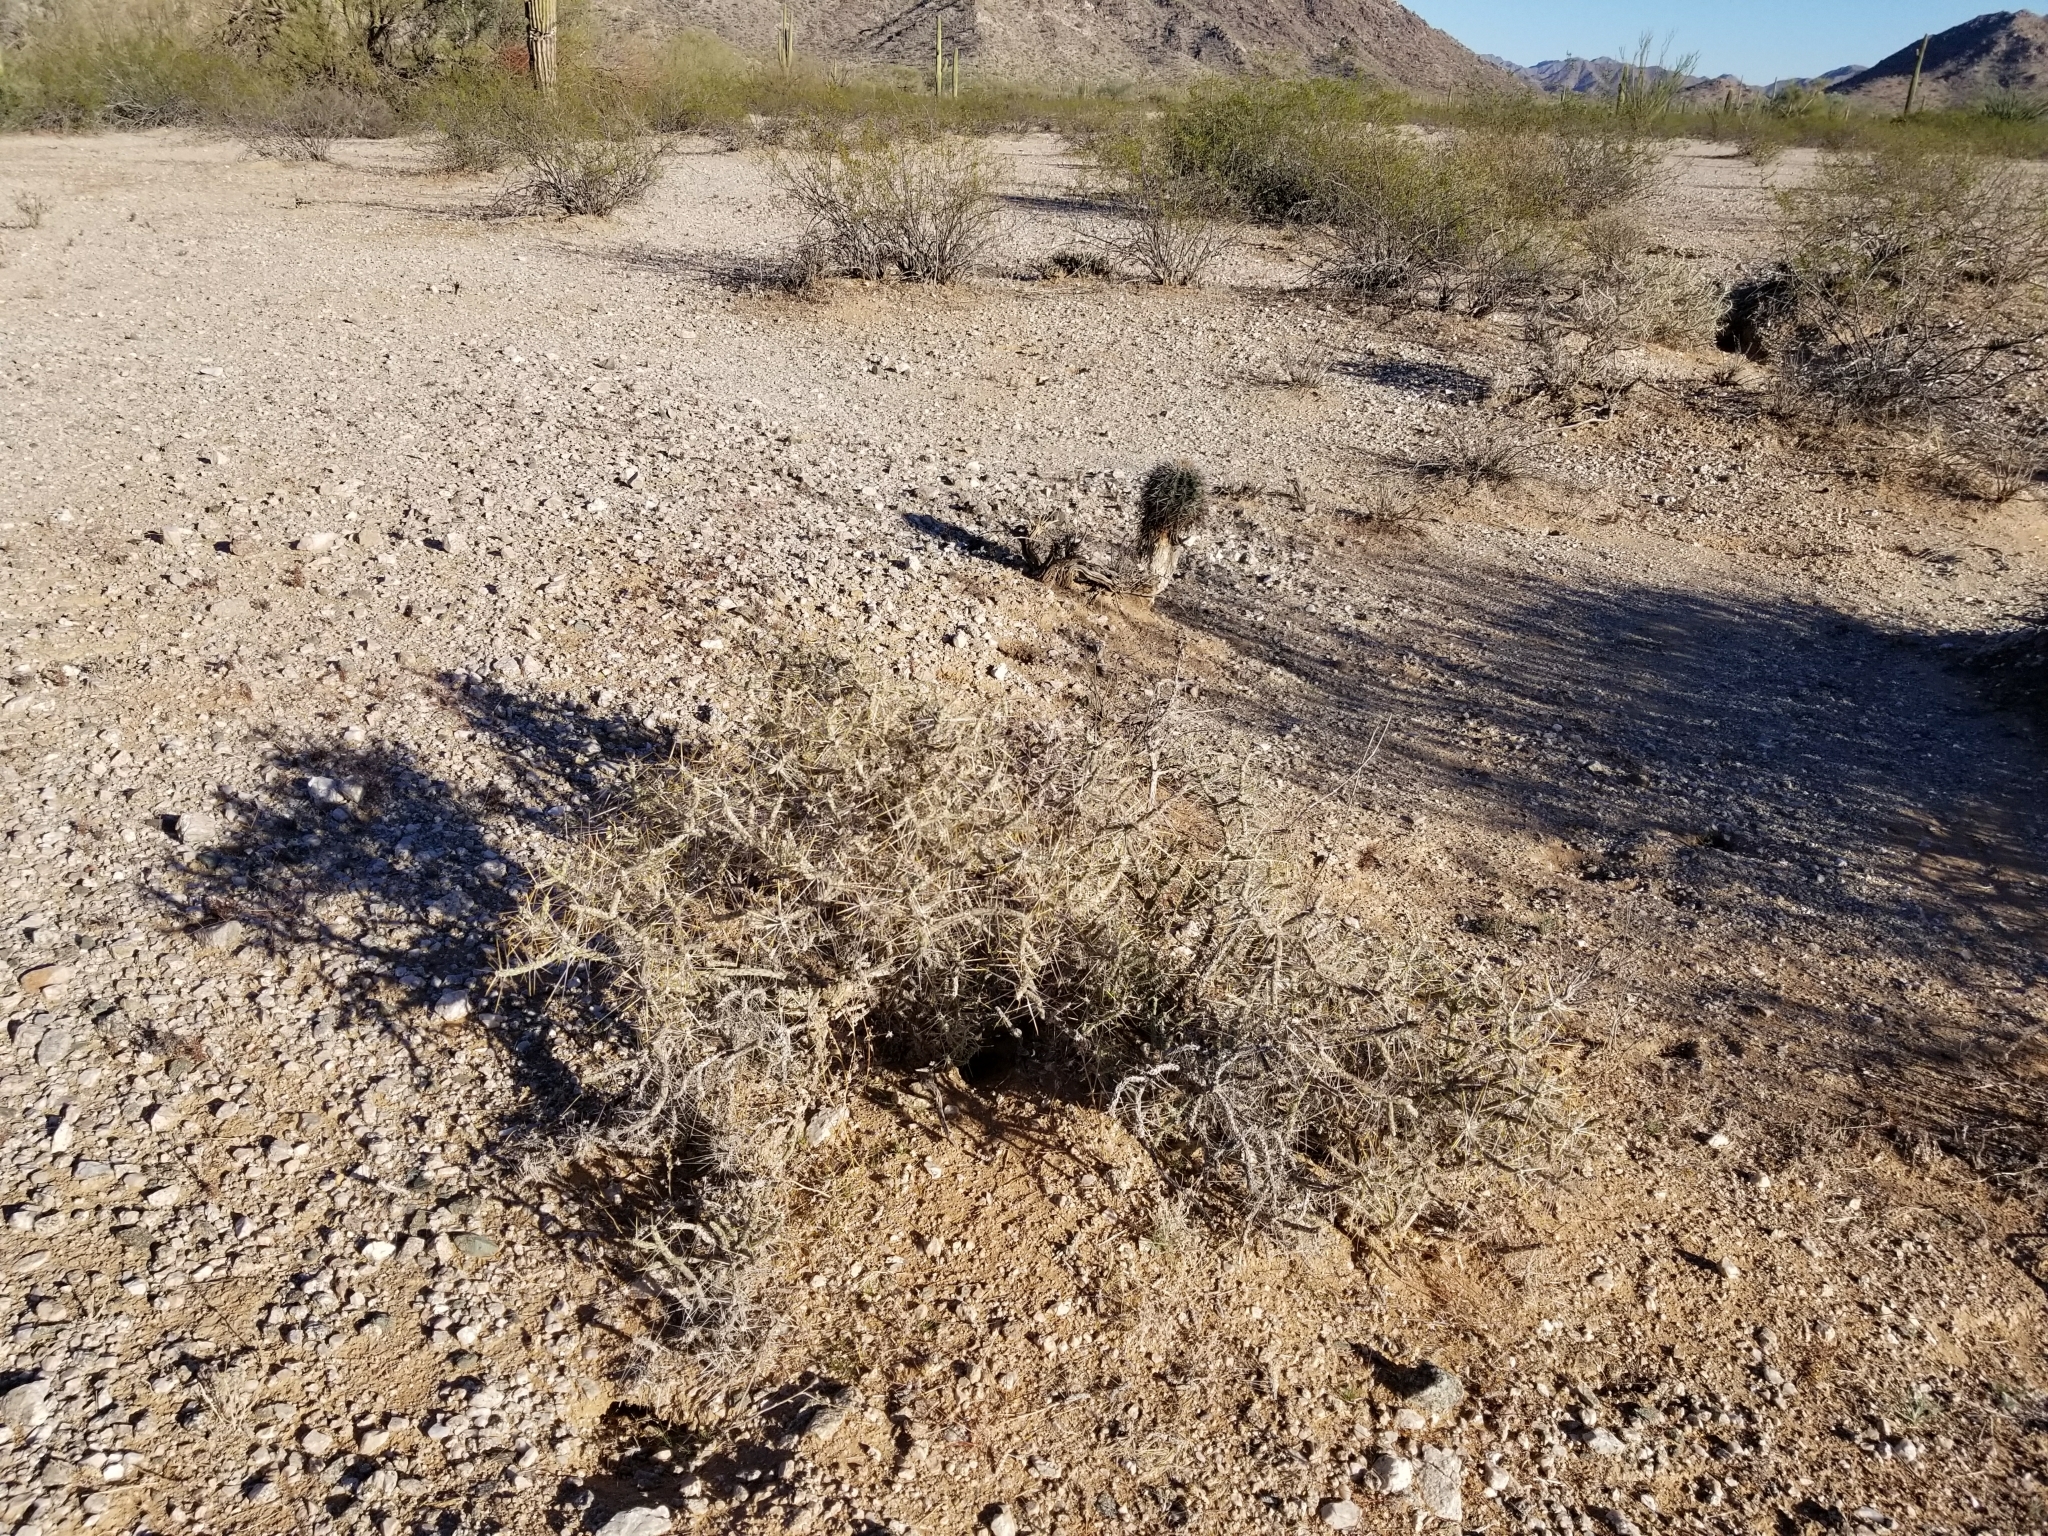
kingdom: Plantae
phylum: Tracheophyta
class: Magnoliopsida
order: Caryophyllales
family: Cactaceae
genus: Cylindropuntia
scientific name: Cylindropuntia ramosissima
